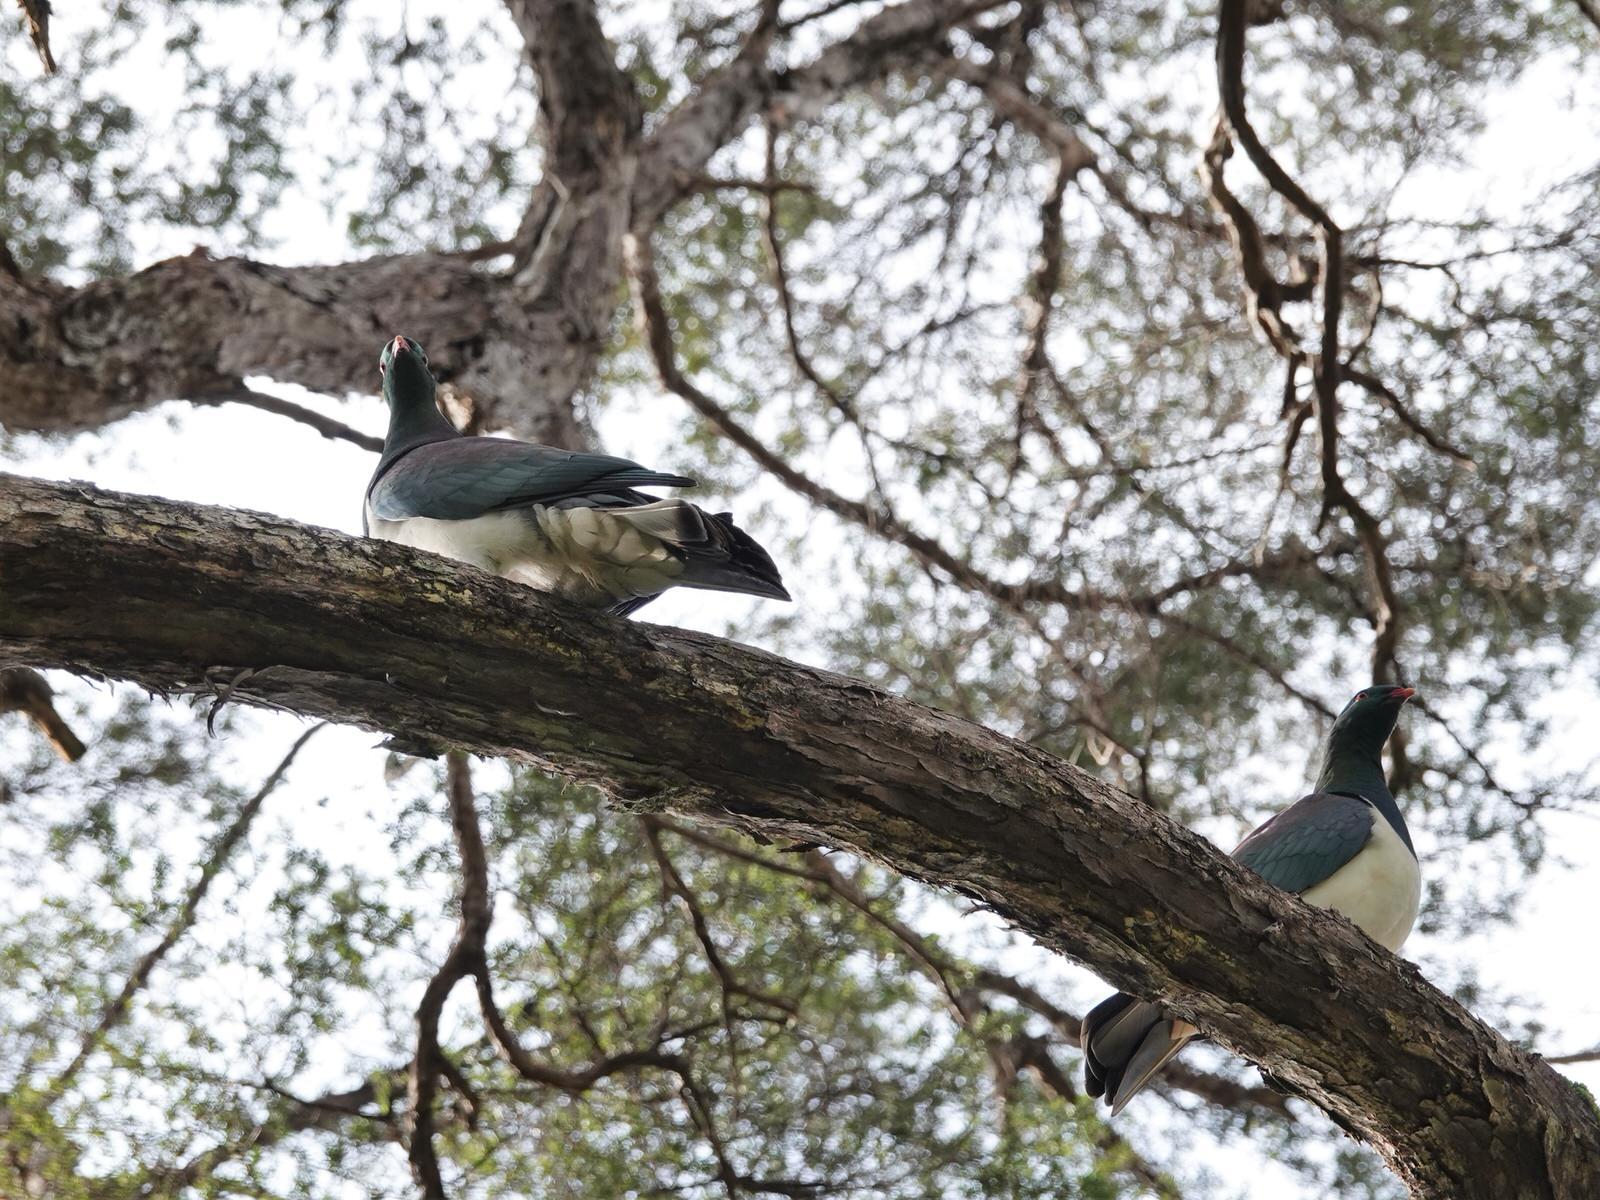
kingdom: Animalia
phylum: Chordata
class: Aves
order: Columbiformes
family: Columbidae
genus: Hemiphaga
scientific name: Hemiphaga novaeseelandiae
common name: New zealand pigeon
